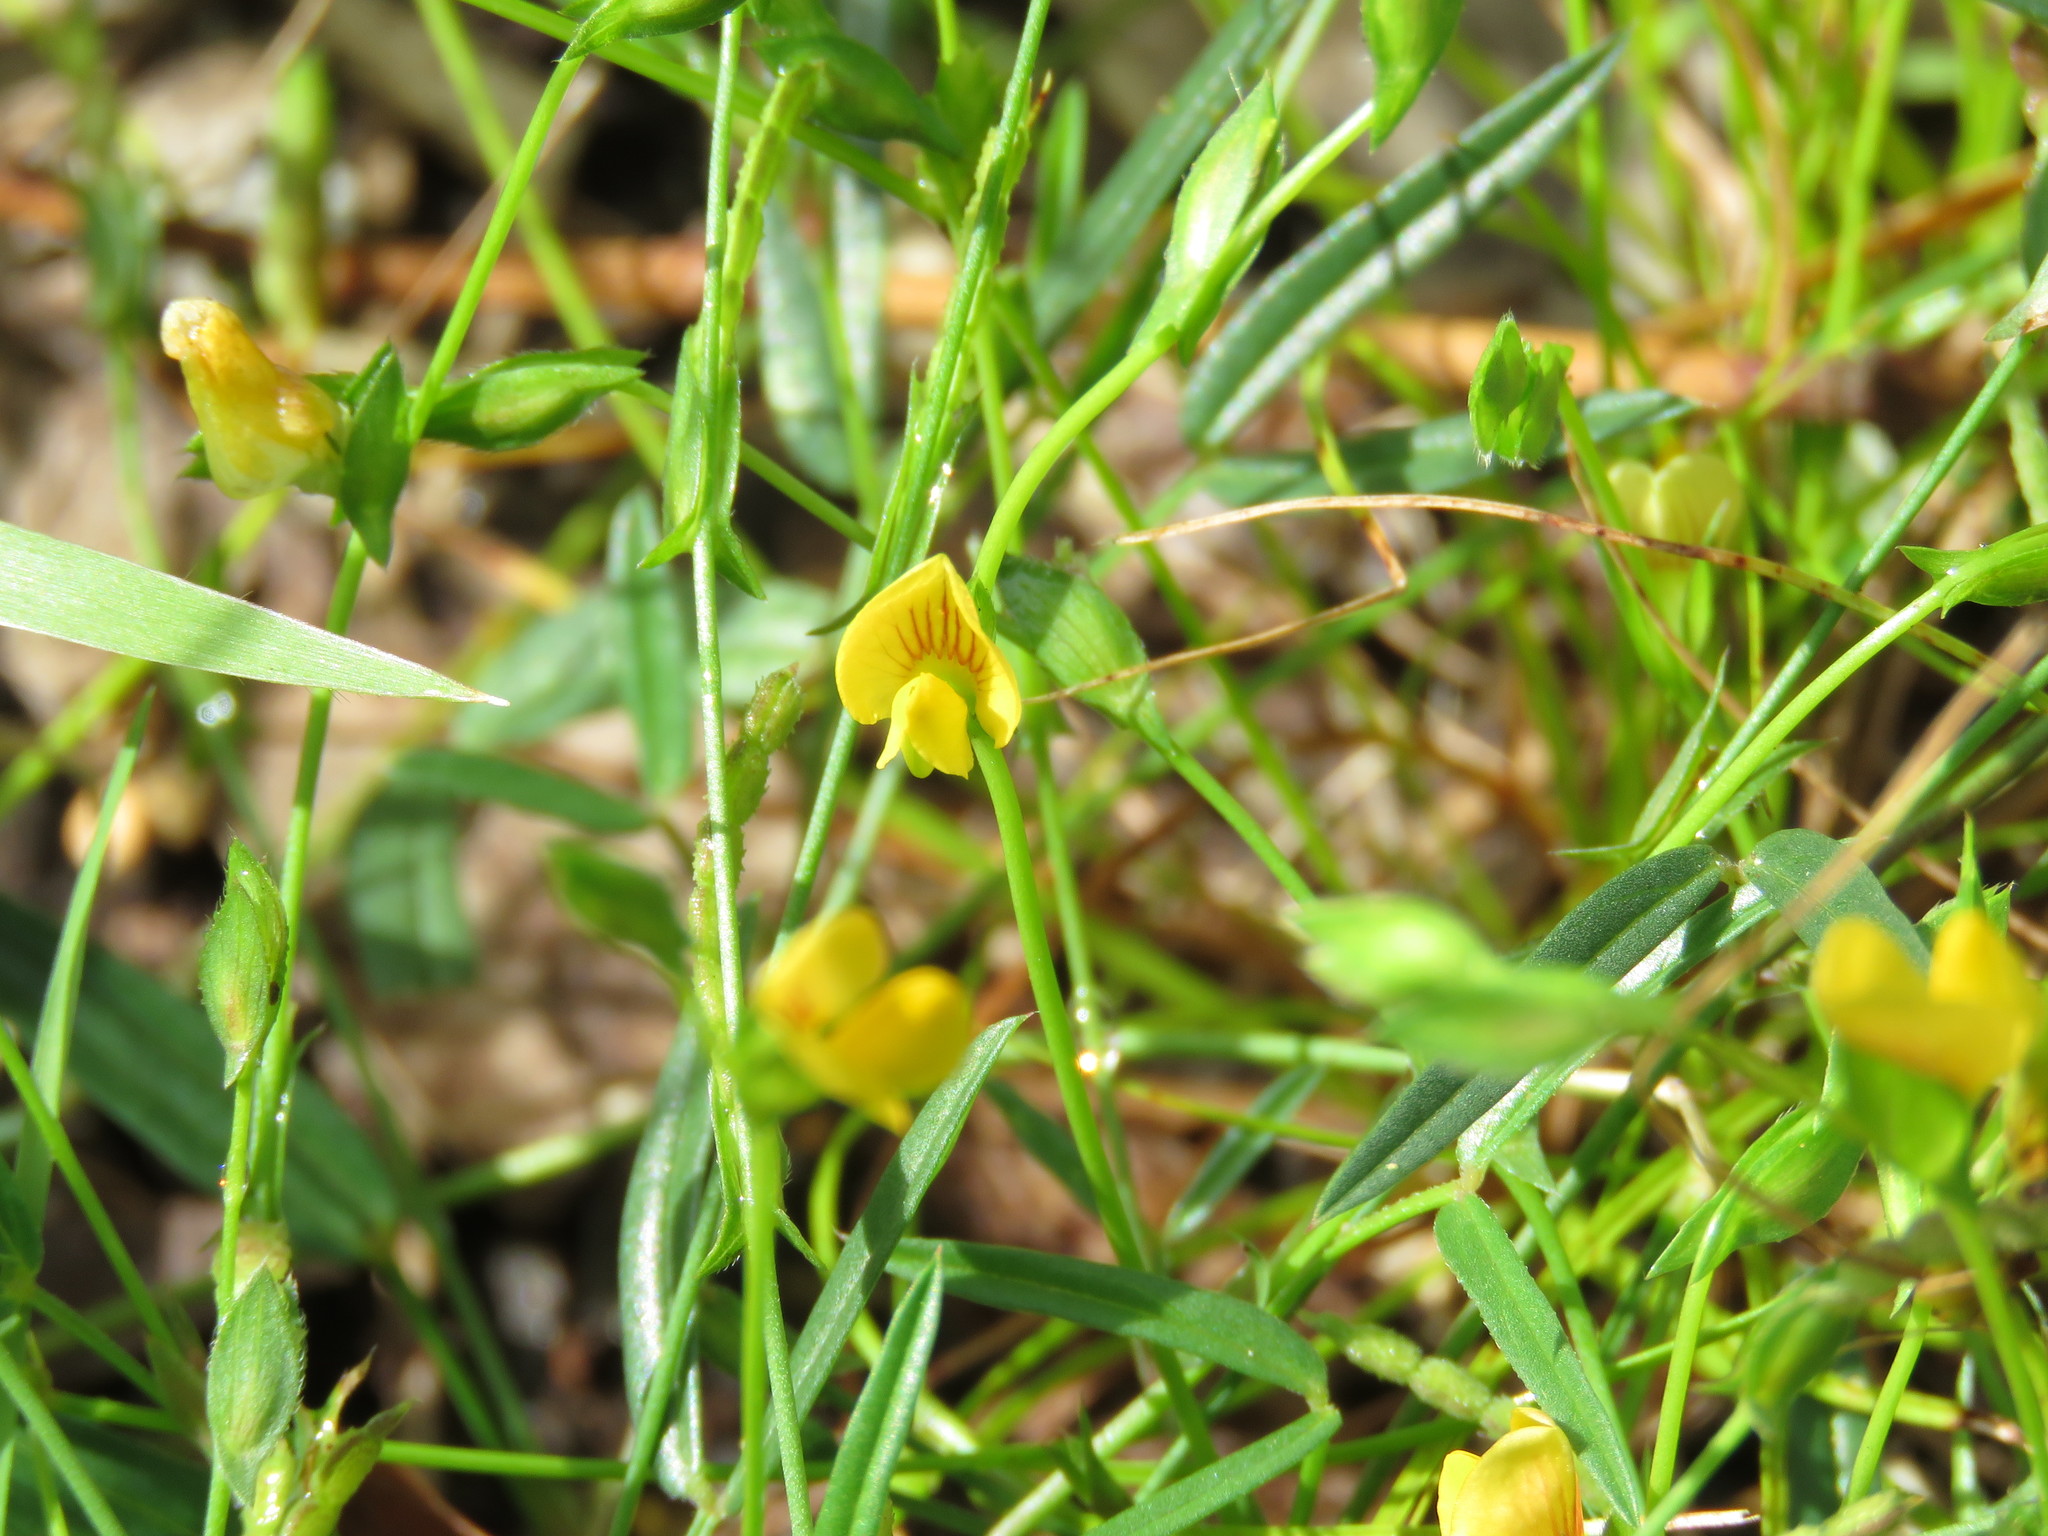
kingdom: Plantae
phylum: Tracheophyta
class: Magnoliopsida
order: Fabales
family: Fabaceae
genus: Zornia
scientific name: Zornia dyctiocarpa
